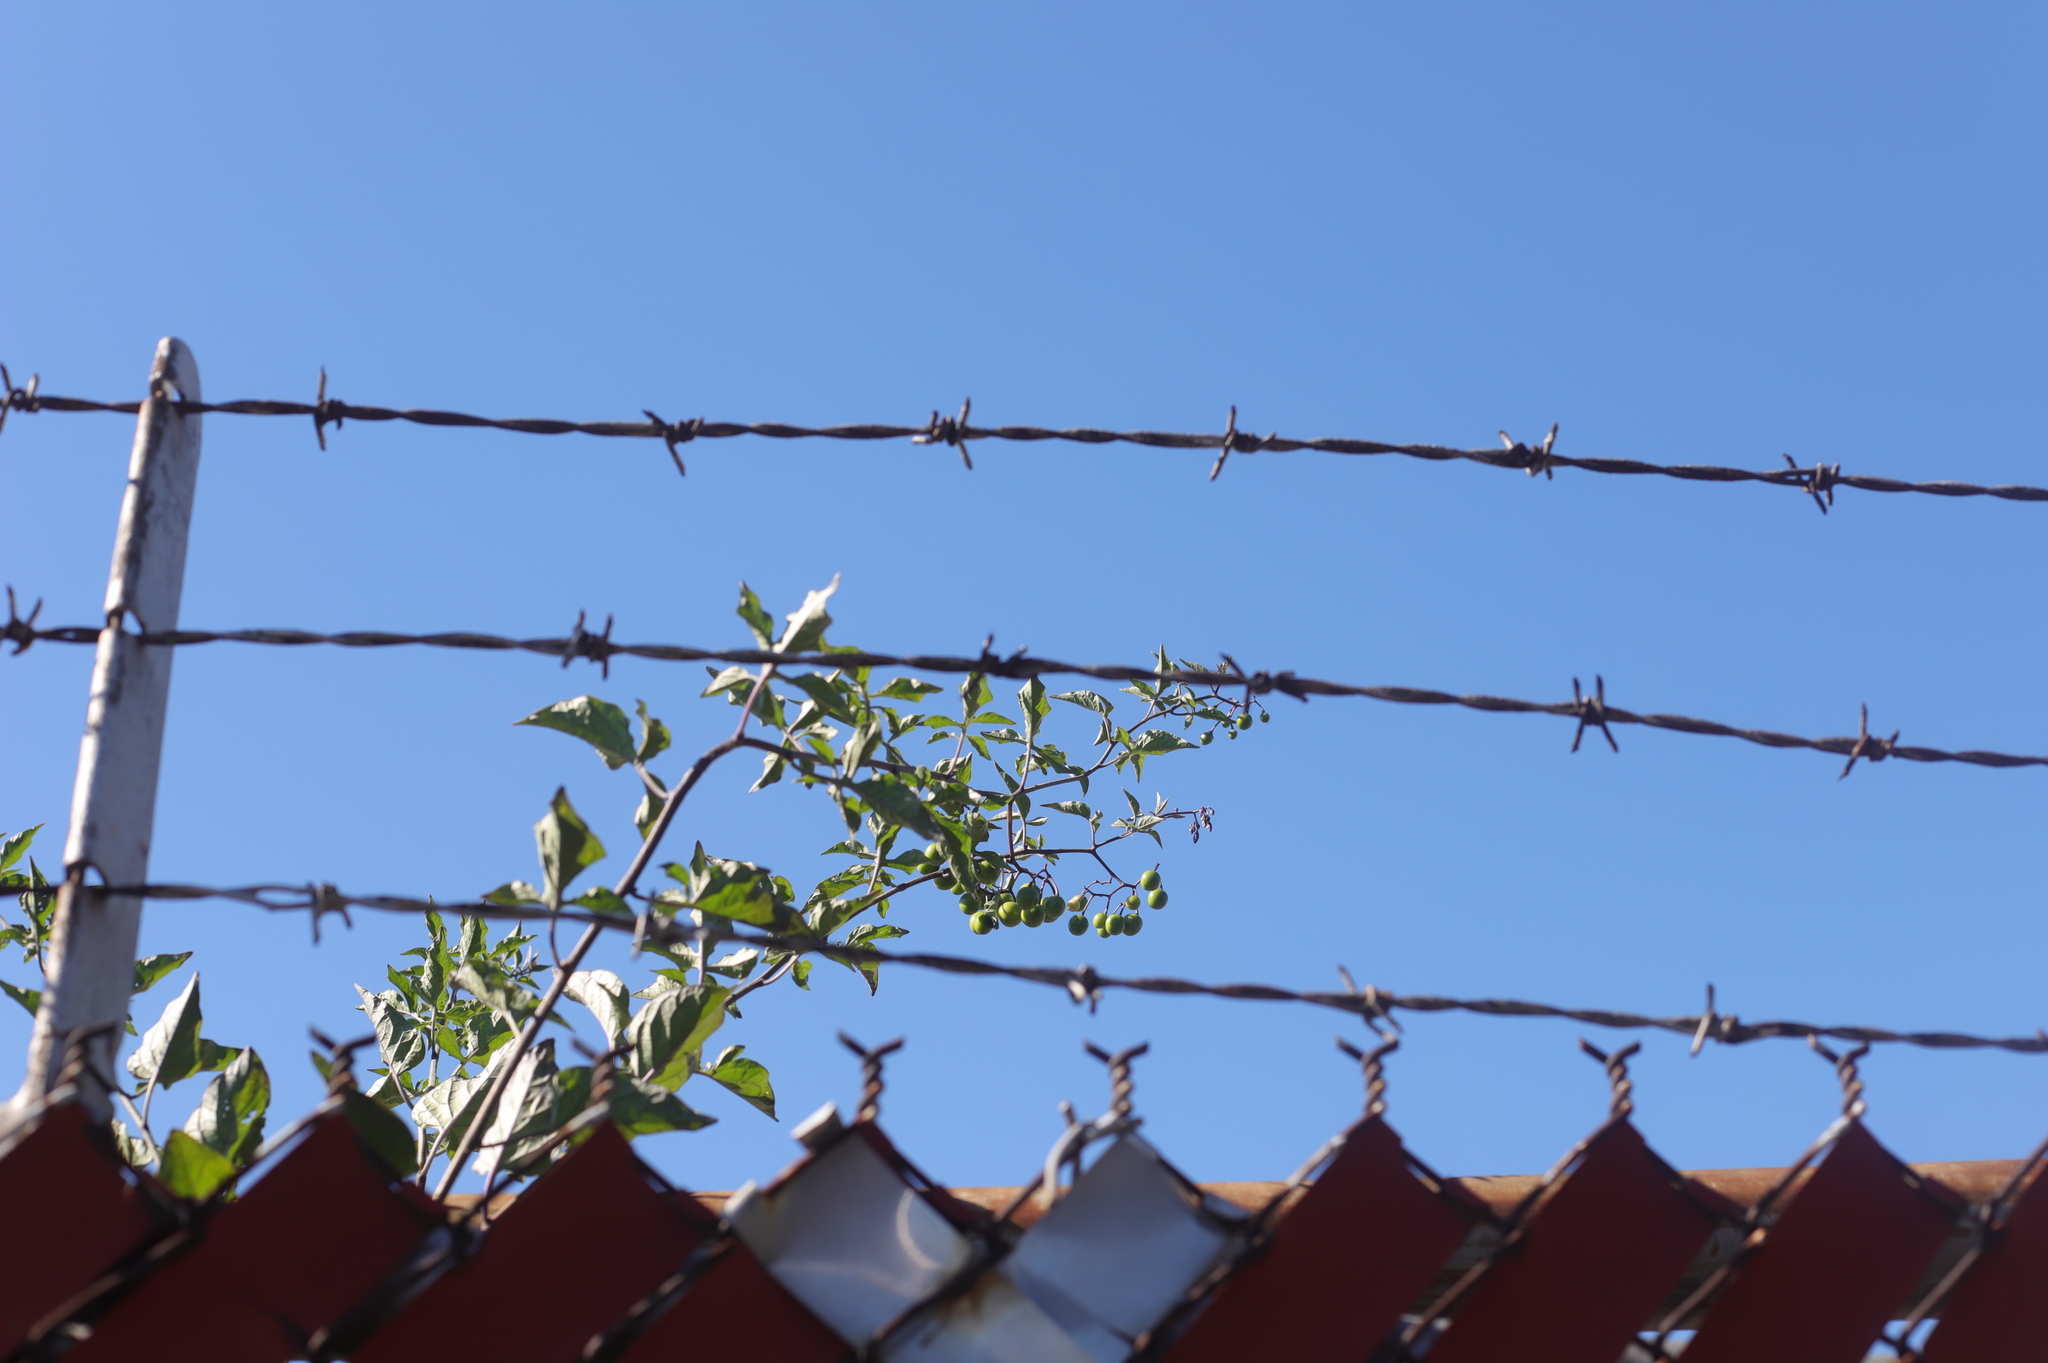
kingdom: Plantae
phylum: Tracheophyta
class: Magnoliopsida
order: Lamiales
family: Paulowniaceae
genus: Paulownia
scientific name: Paulownia tomentosa
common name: Foxglove-tree
